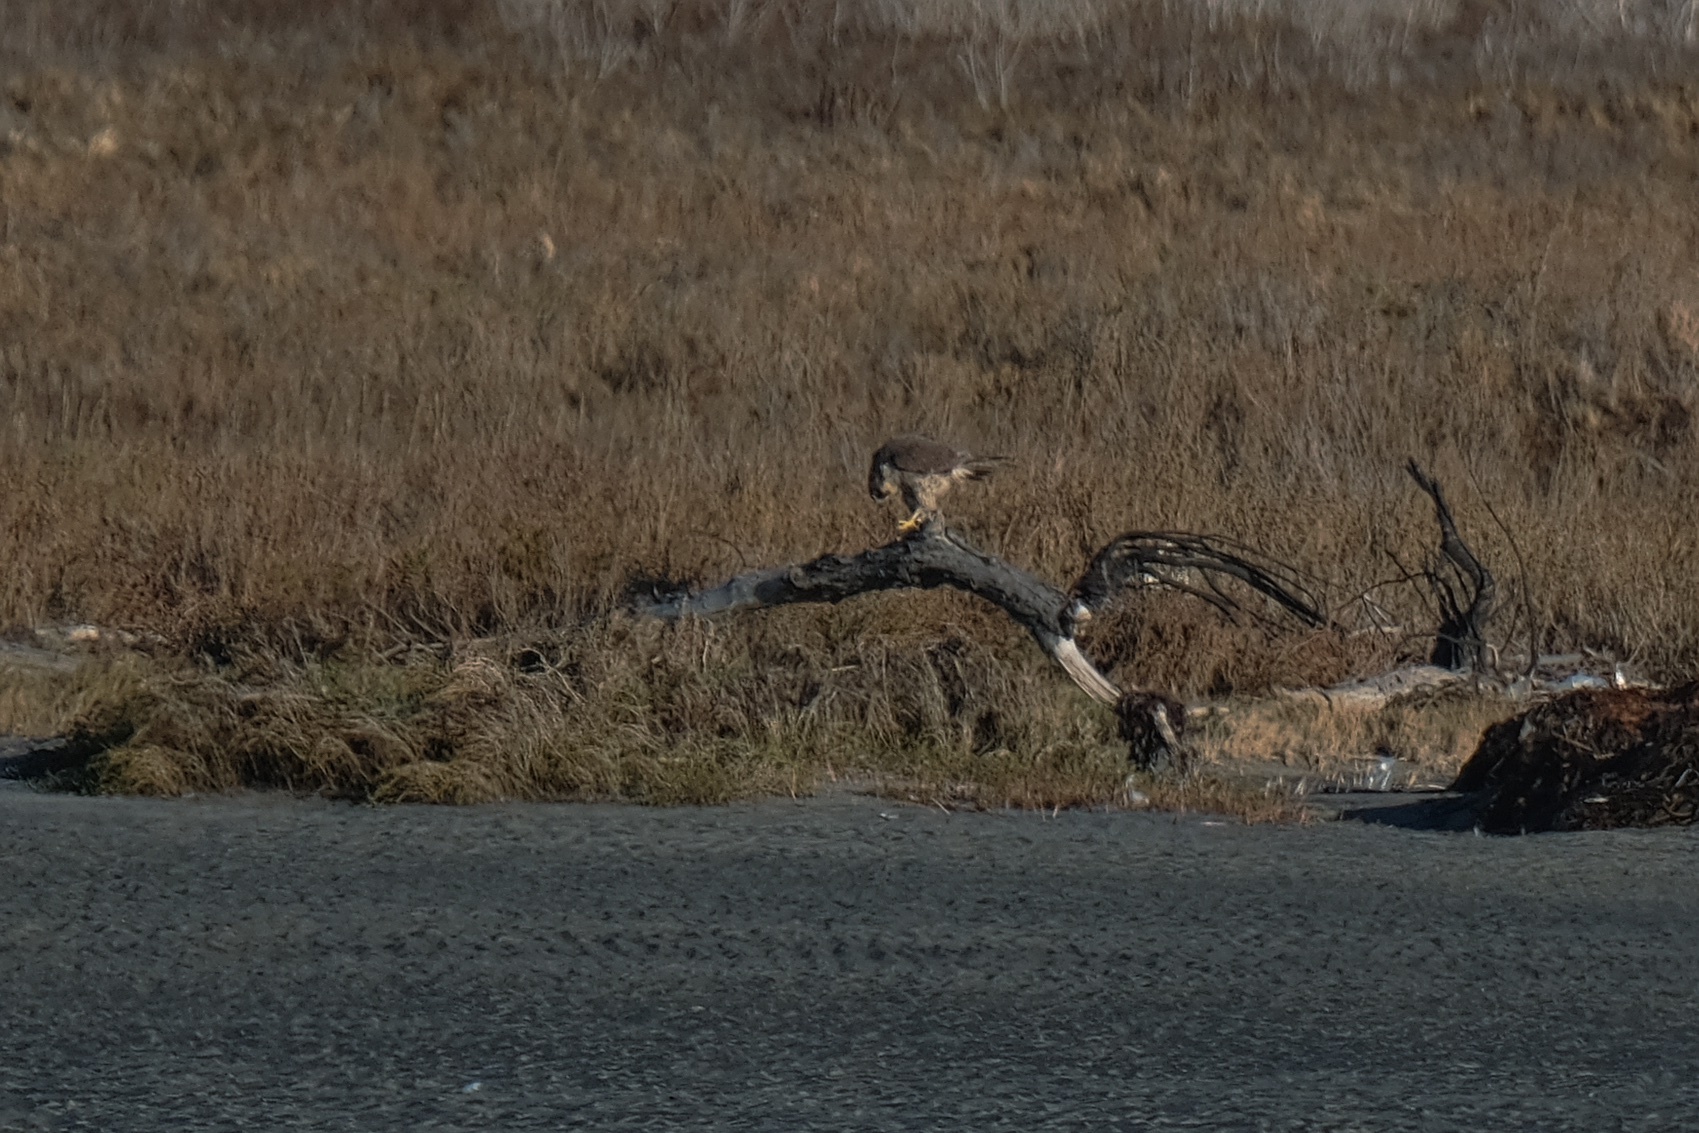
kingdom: Animalia
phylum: Chordata
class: Aves
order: Falconiformes
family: Falconidae
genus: Falco
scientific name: Falco peregrinus
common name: Peregrine falcon
